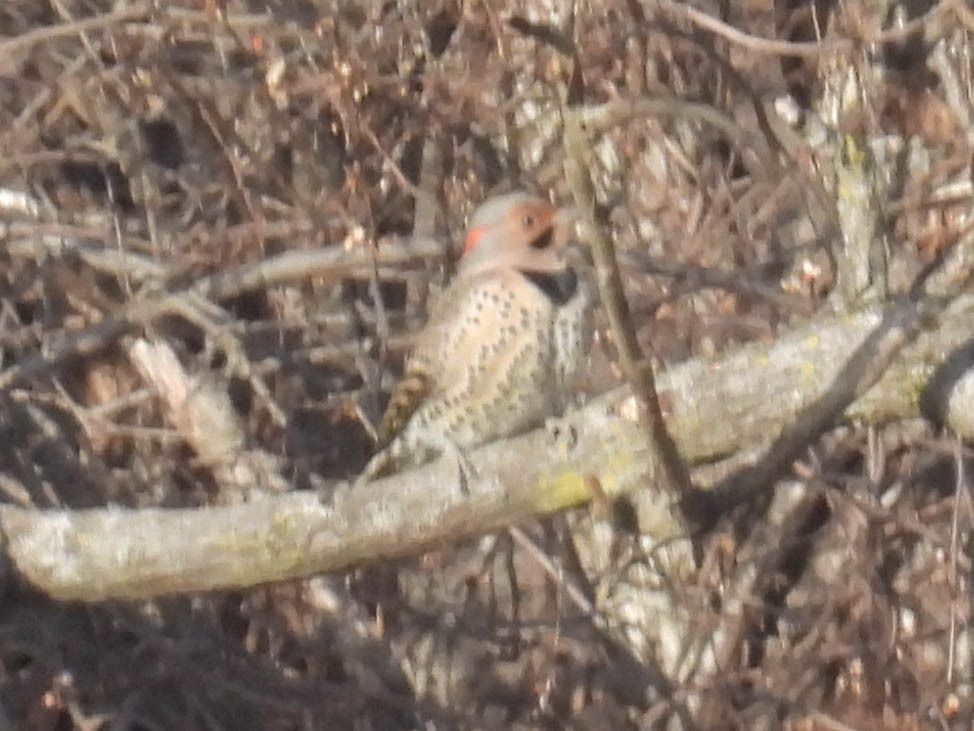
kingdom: Animalia
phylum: Chordata
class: Aves
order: Piciformes
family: Picidae
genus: Colaptes
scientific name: Colaptes auratus
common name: Northern flicker
